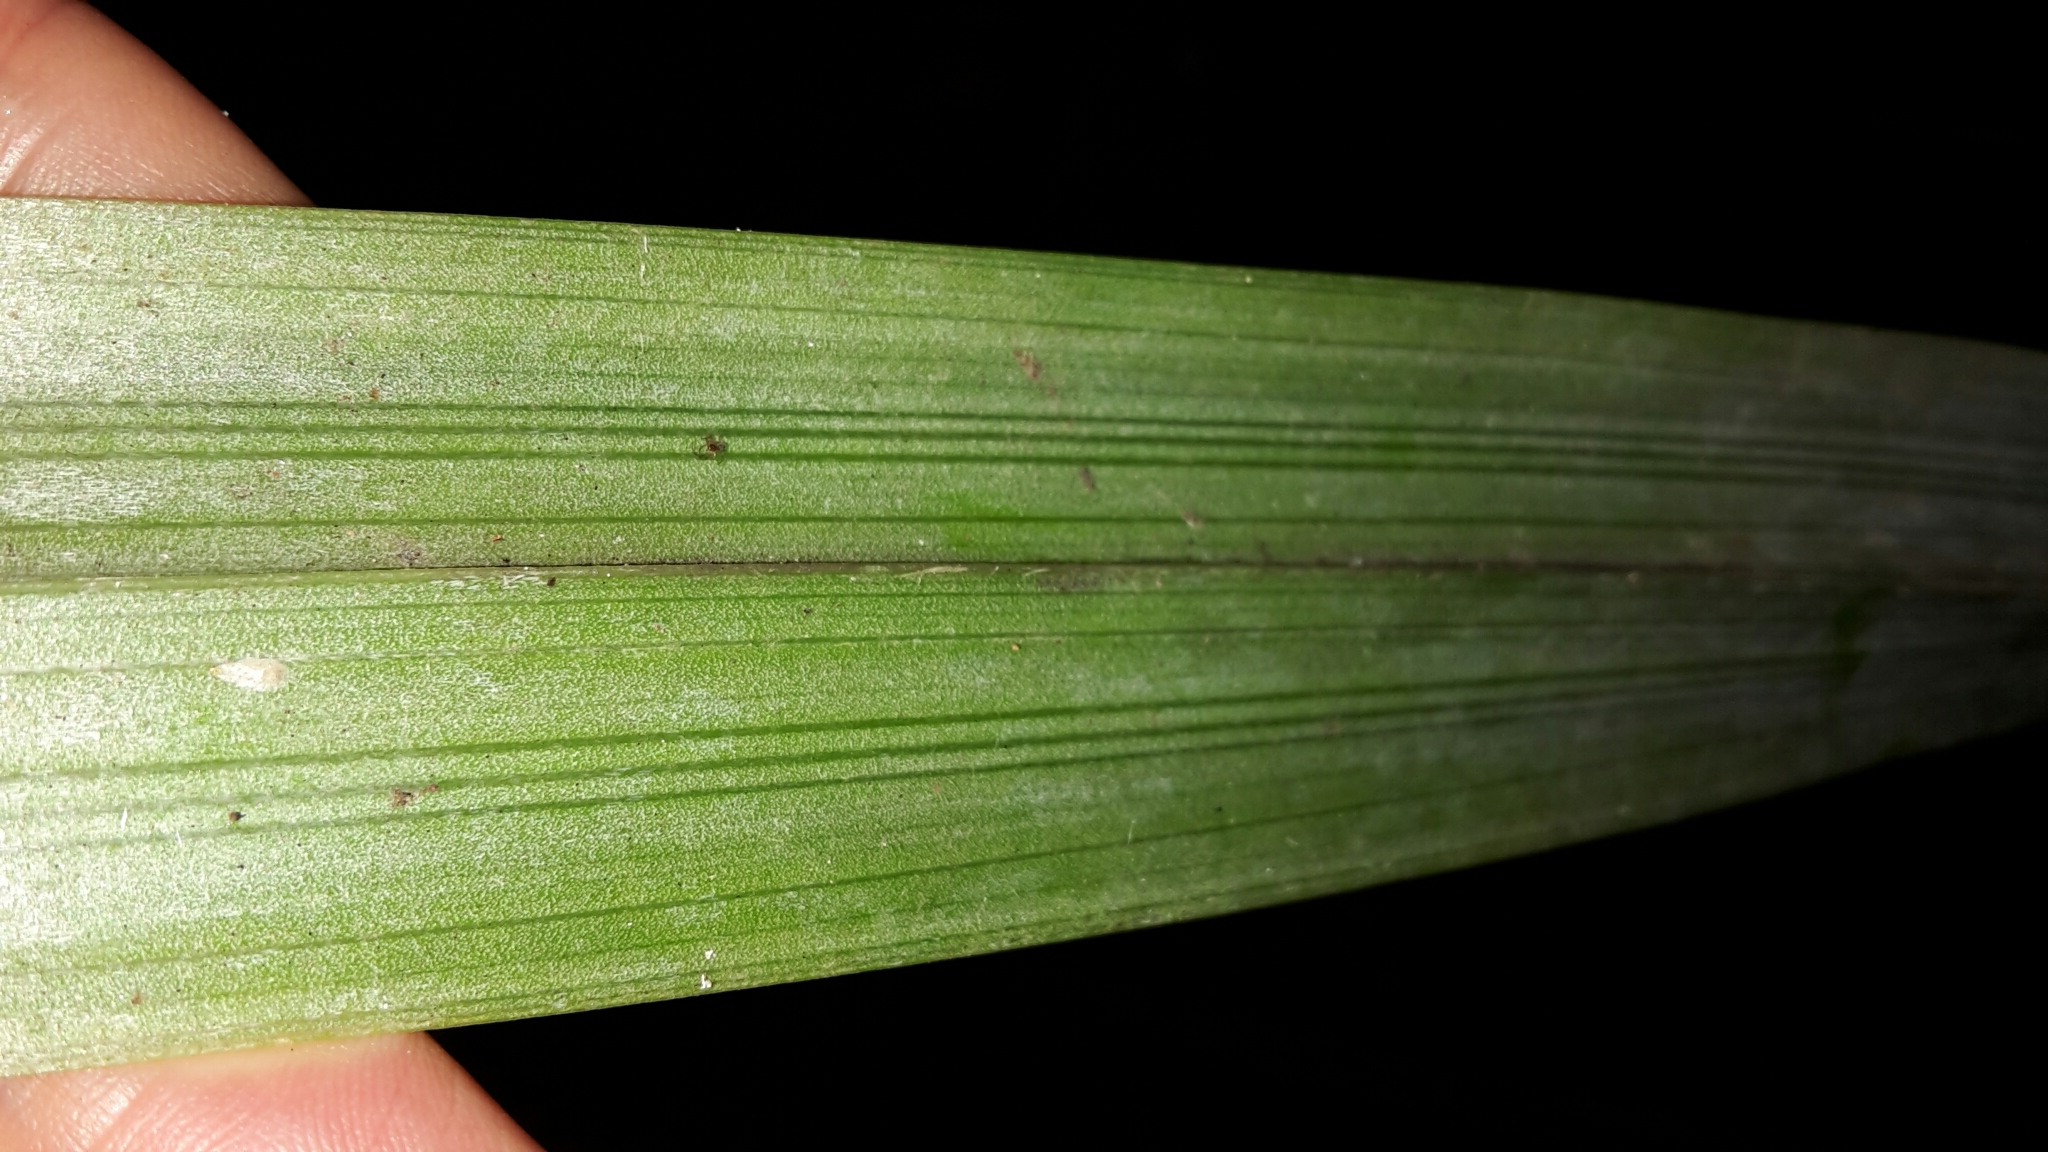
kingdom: Plantae
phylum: Tracheophyta
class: Liliopsida
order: Asparagales
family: Asteliaceae
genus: Astelia
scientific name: Astelia trinervia
